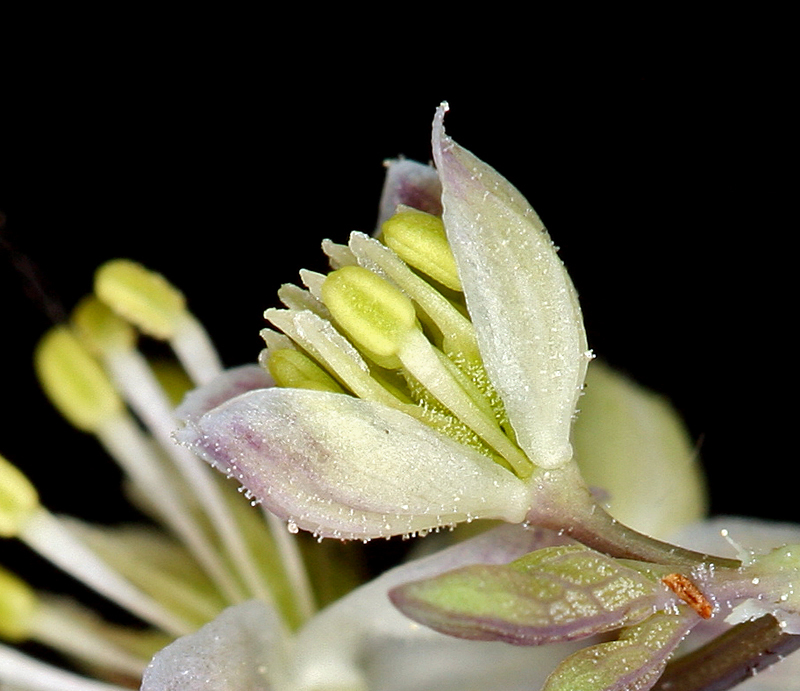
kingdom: Plantae
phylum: Tracheophyta
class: Magnoliopsida
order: Ranunculales
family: Ranunculaceae
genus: Thalictrum
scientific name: Thalictrum sparsiflorum
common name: Mountain meadow-rue
